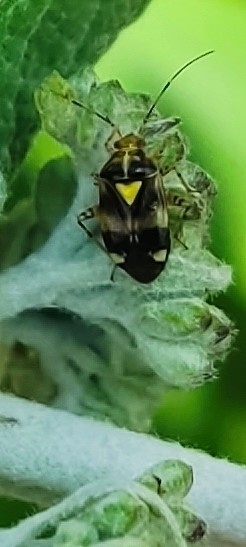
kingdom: Animalia
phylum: Arthropoda
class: Insecta
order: Hemiptera
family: Miridae
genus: Liocoris
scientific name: Liocoris tripustulatus
